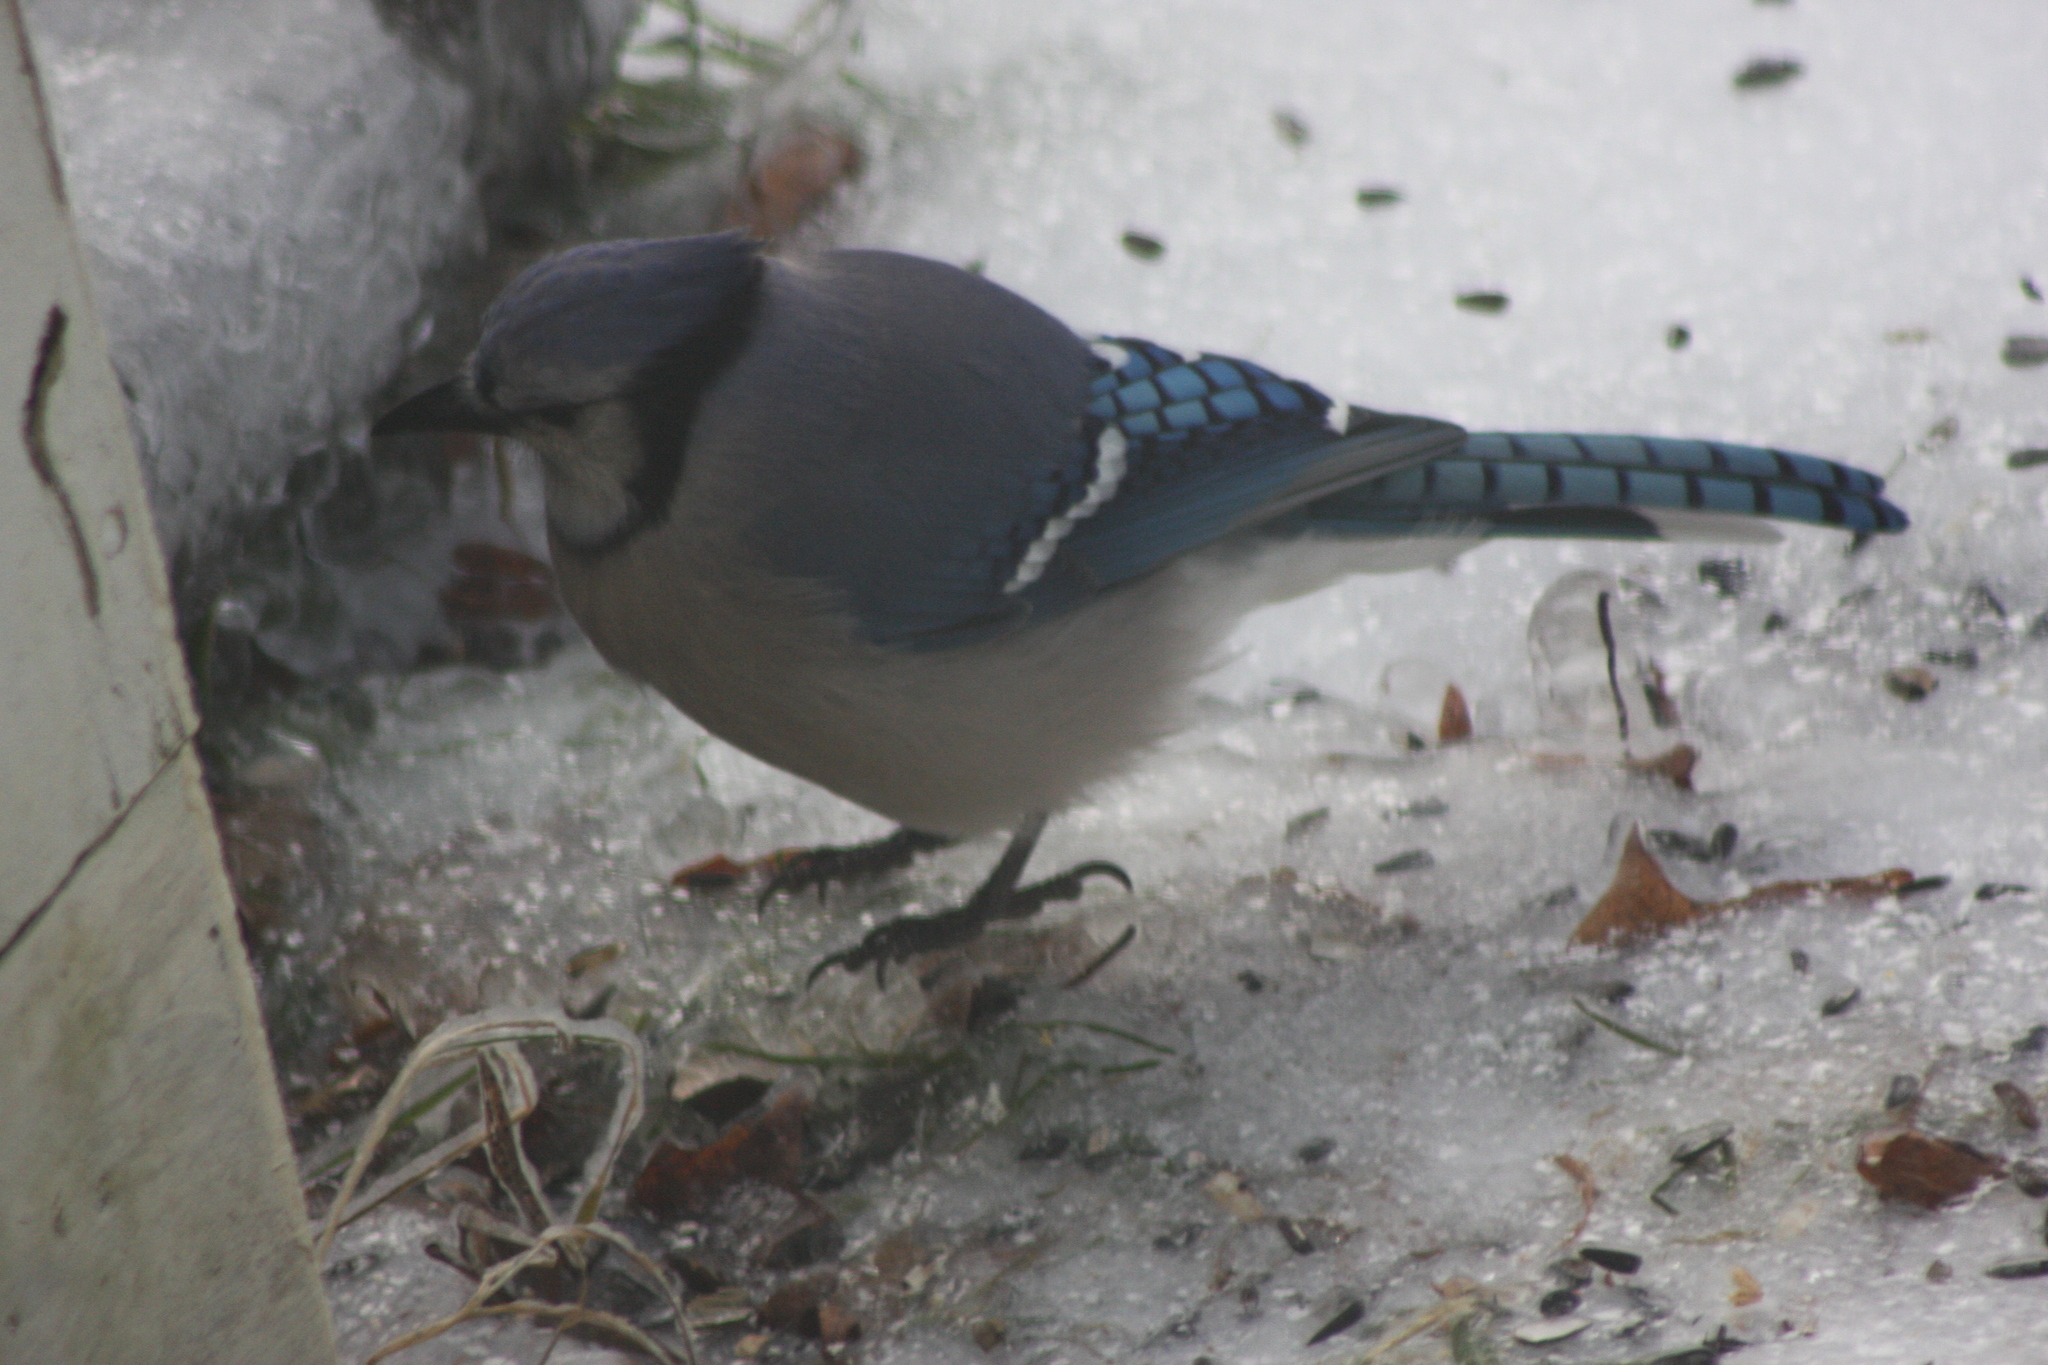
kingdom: Animalia
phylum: Chordata
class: Aves
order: Passeriformes
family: Corvidae
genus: Cyanocitta
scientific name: Cyanocitta cristata
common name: Blue jay
